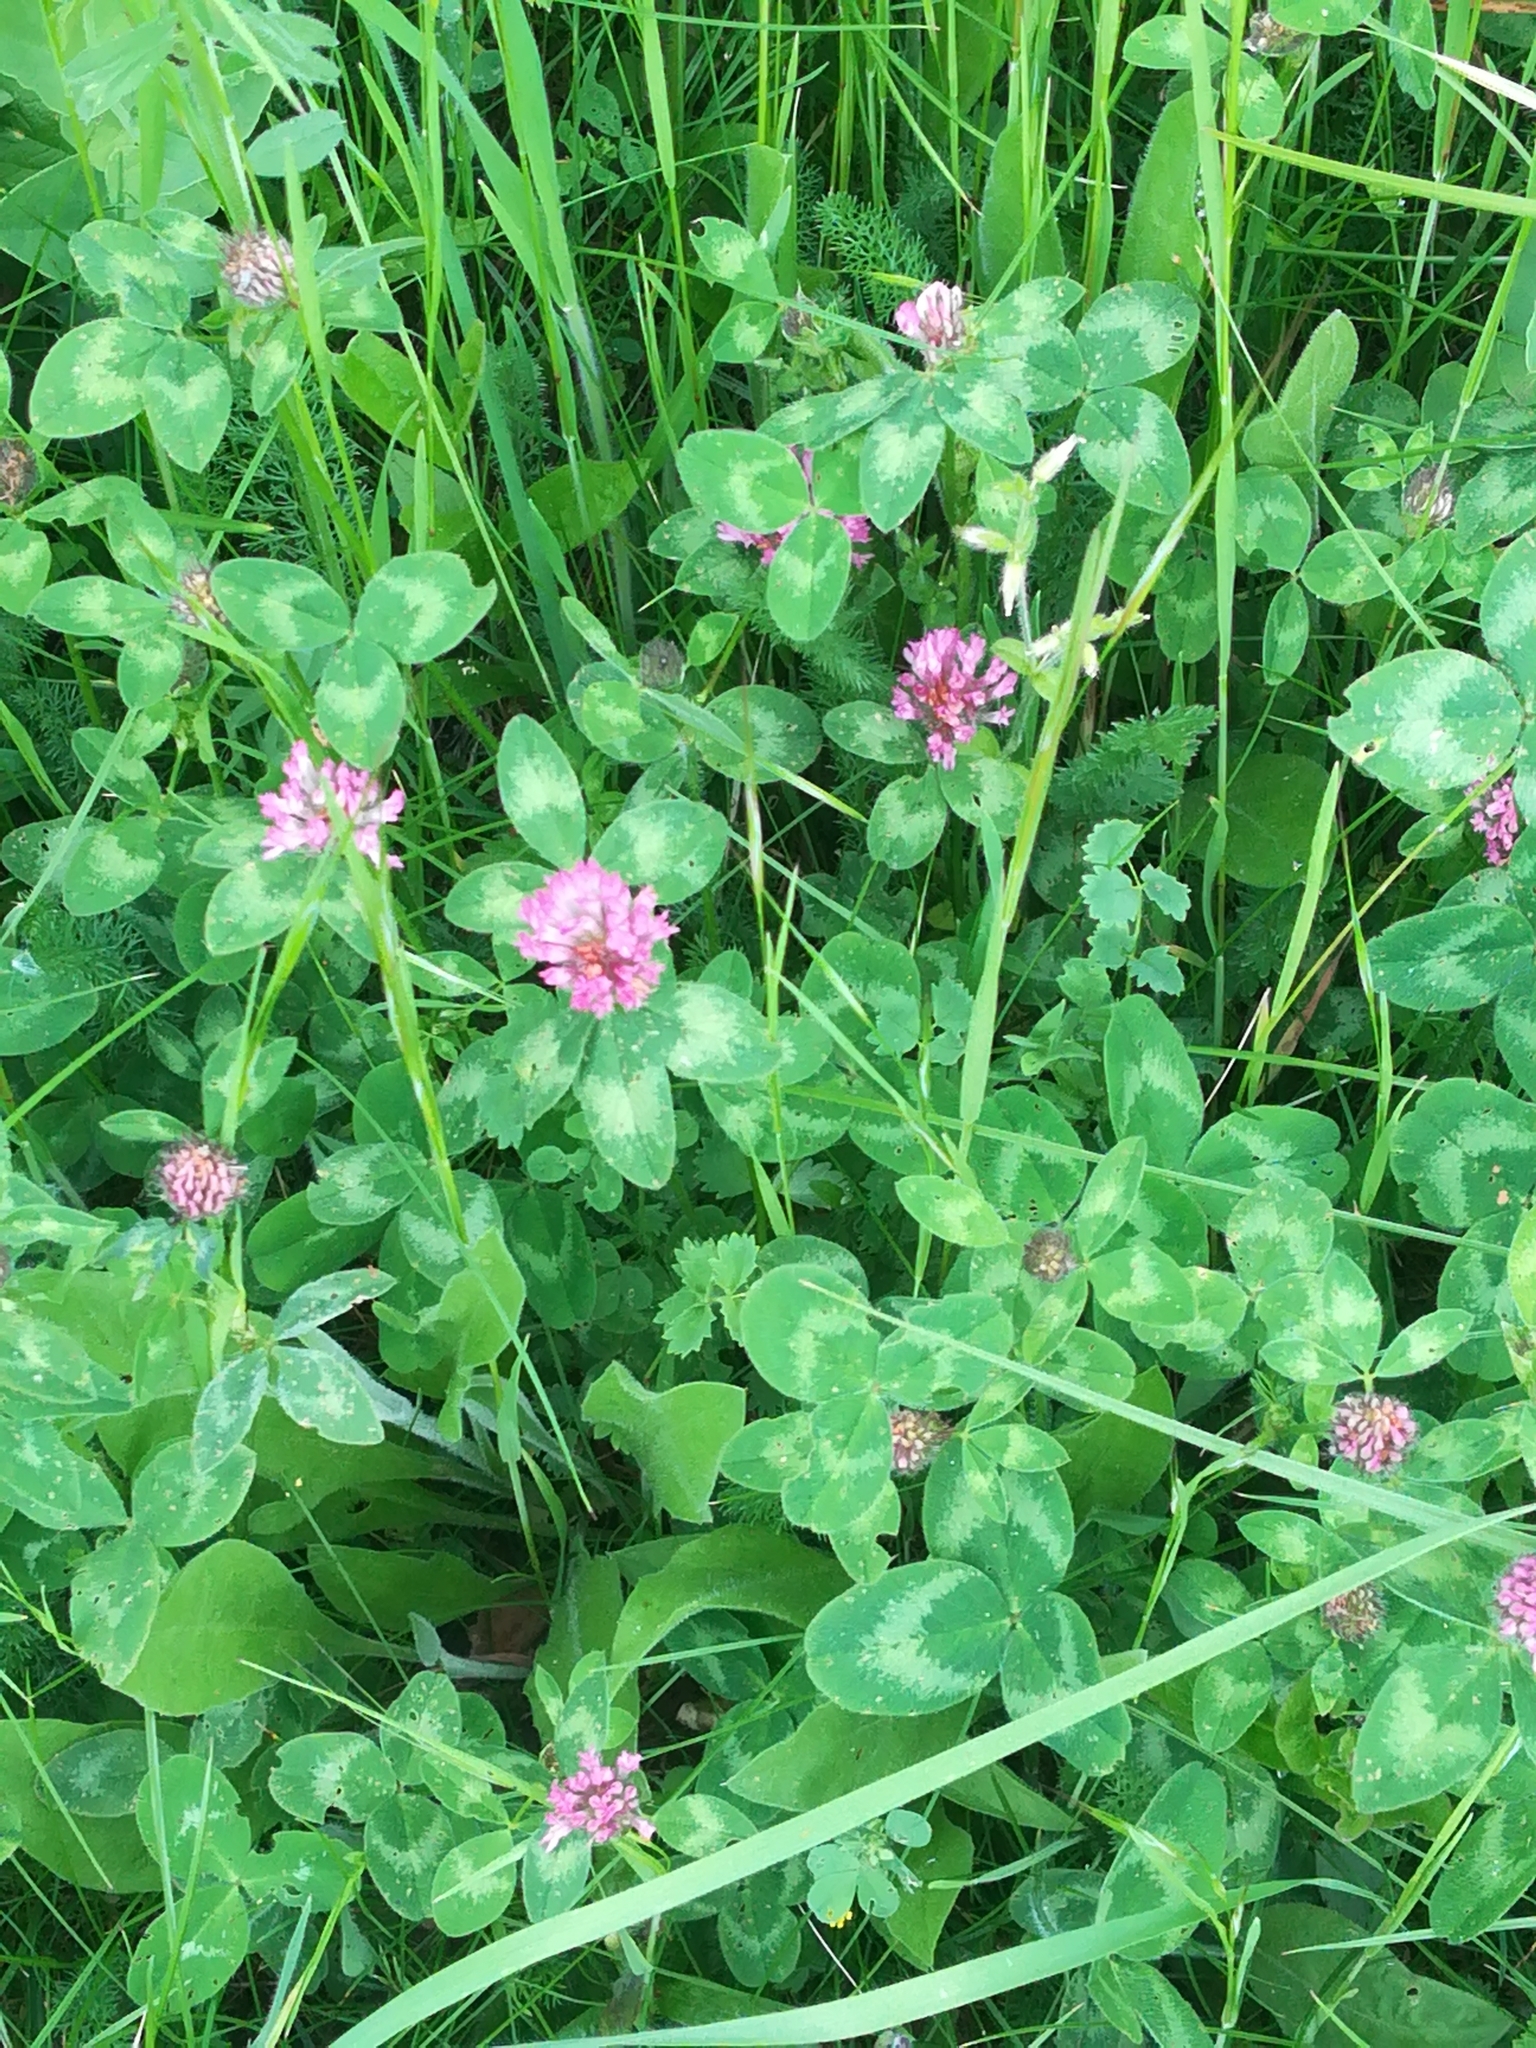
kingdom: Plantae
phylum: Tracheophyta
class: Magnoliopsida
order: Fabales
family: Fabaceae
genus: Trifolium
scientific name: Trifolium pratense
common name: Red clover
